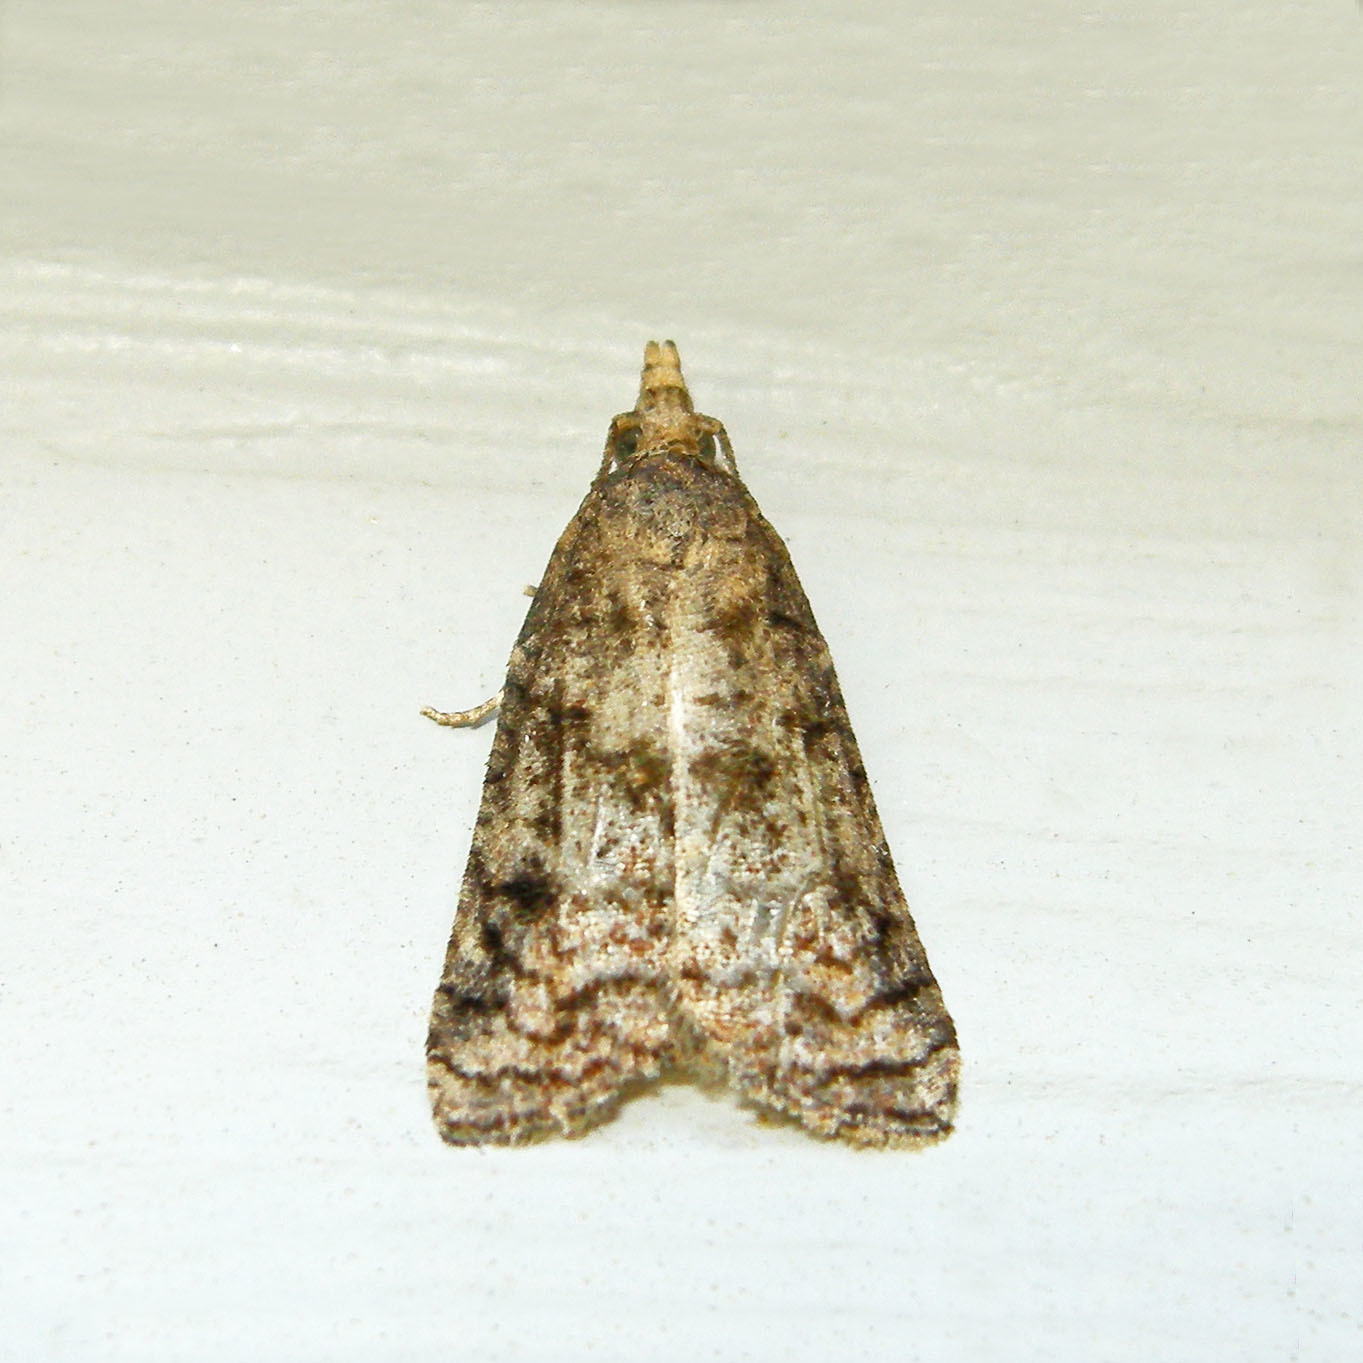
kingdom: Animalia
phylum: Arthropoda
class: Insecta
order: Lepidoptera
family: Tortricidae
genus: Platynota
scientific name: Platynota idaeusalis
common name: Tufted apple bud moth
